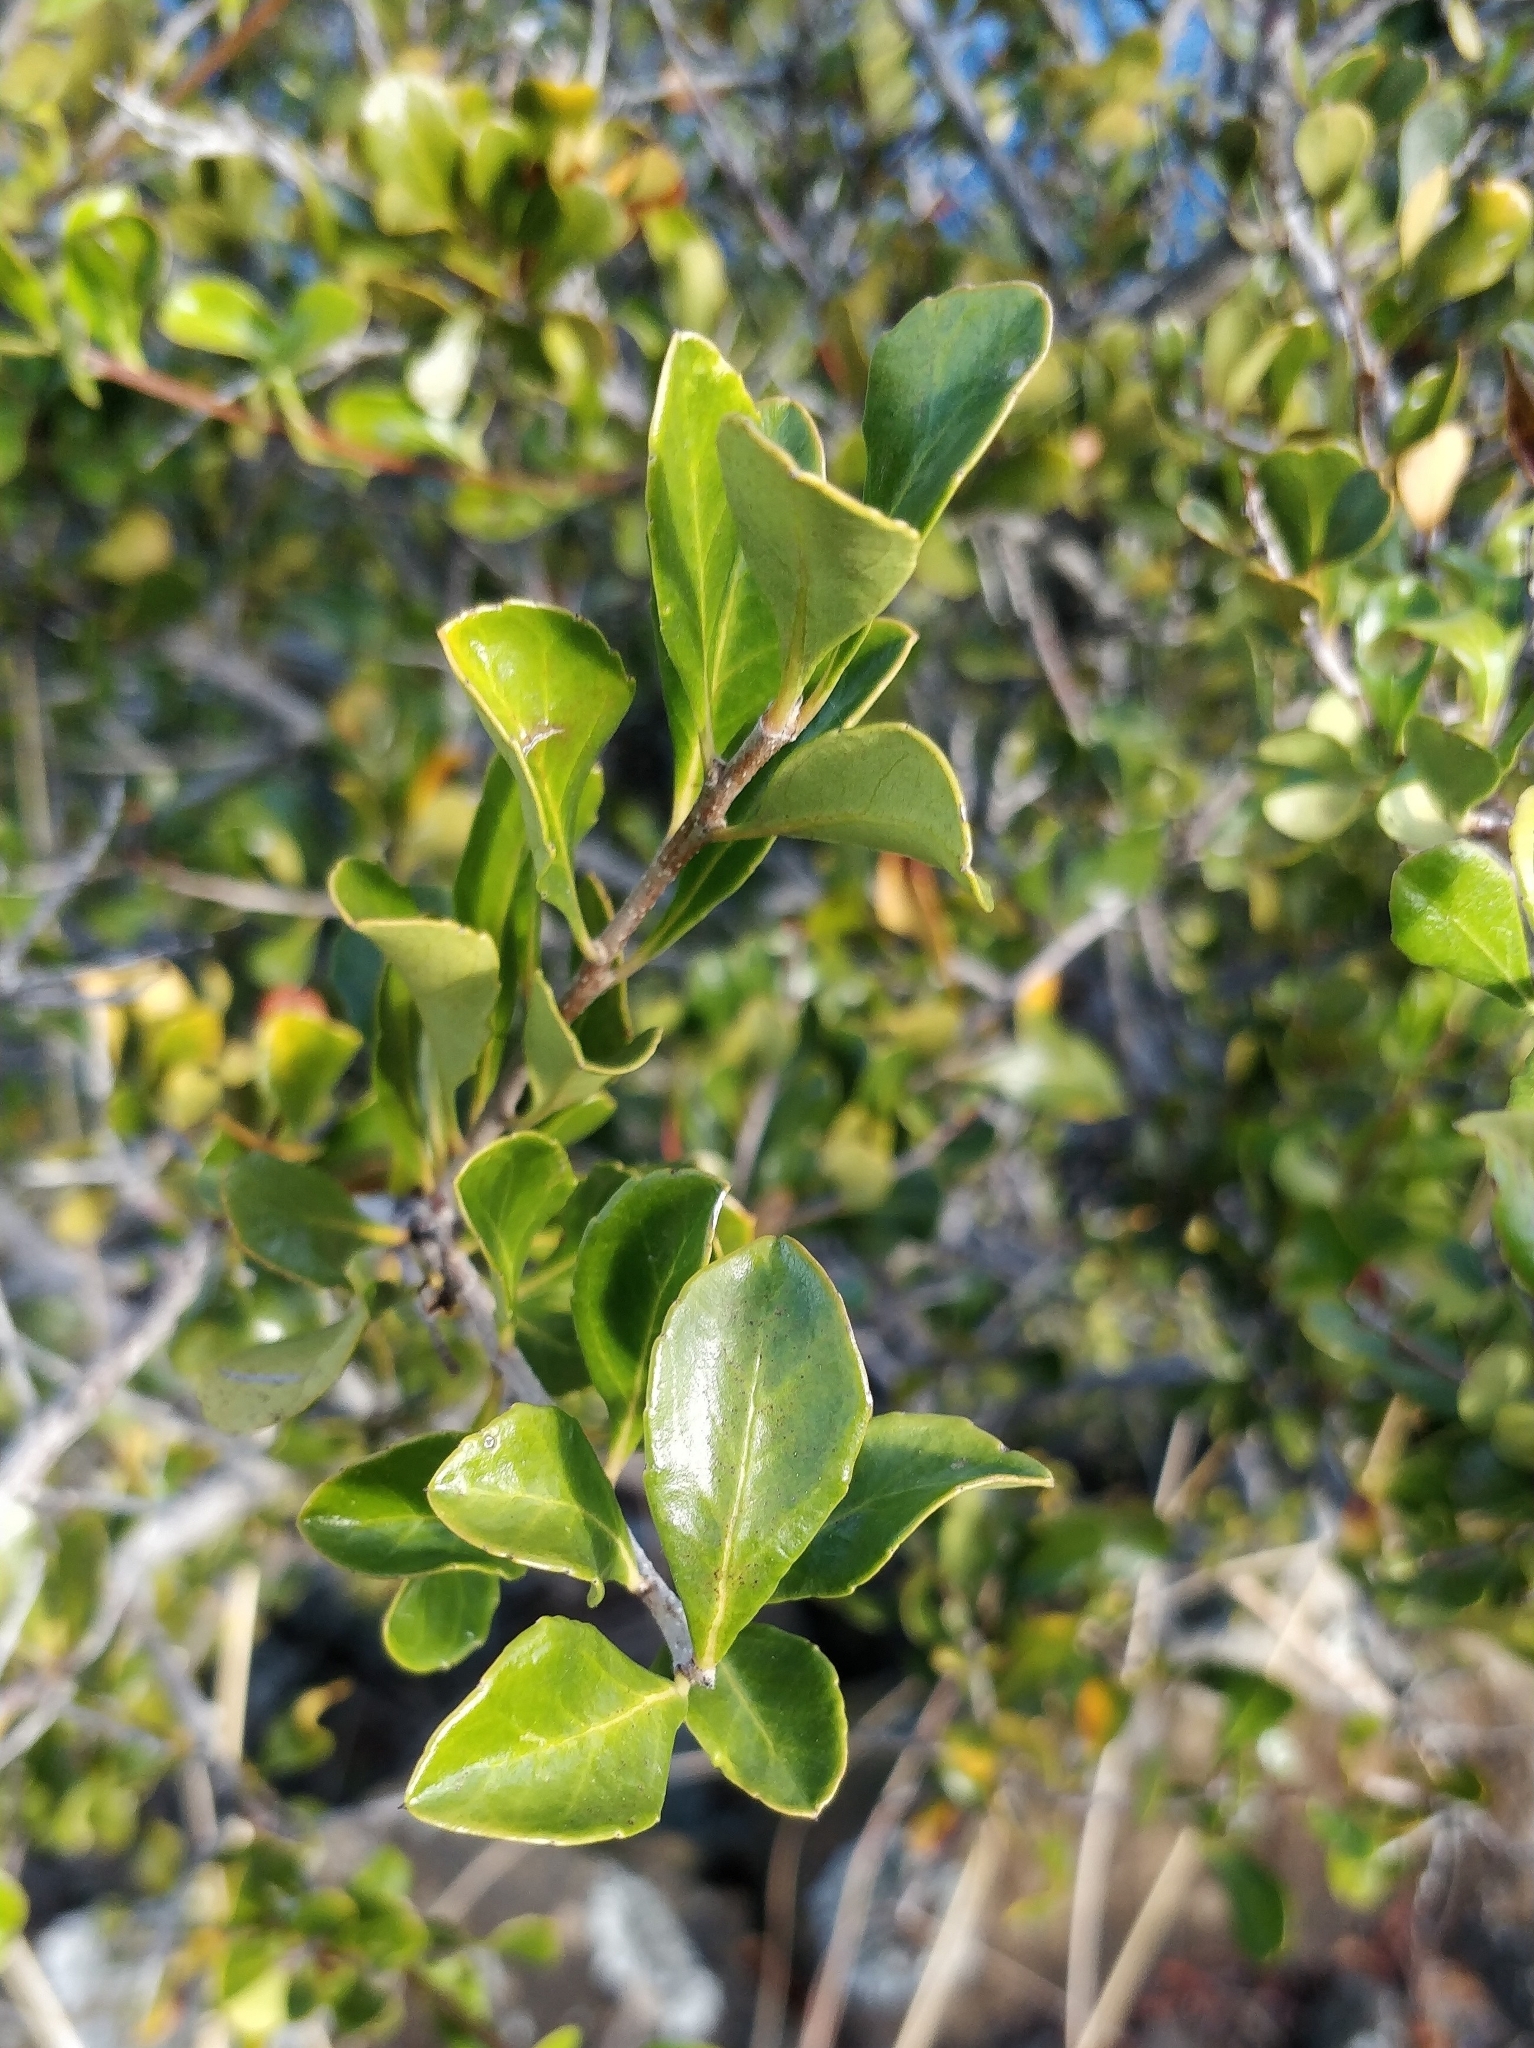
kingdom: Plantae
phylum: Tracheophyta
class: Magnoliopsida
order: Rosales
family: Rosaceae
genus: Chamaemeles
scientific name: Chamaemeles coriacea
